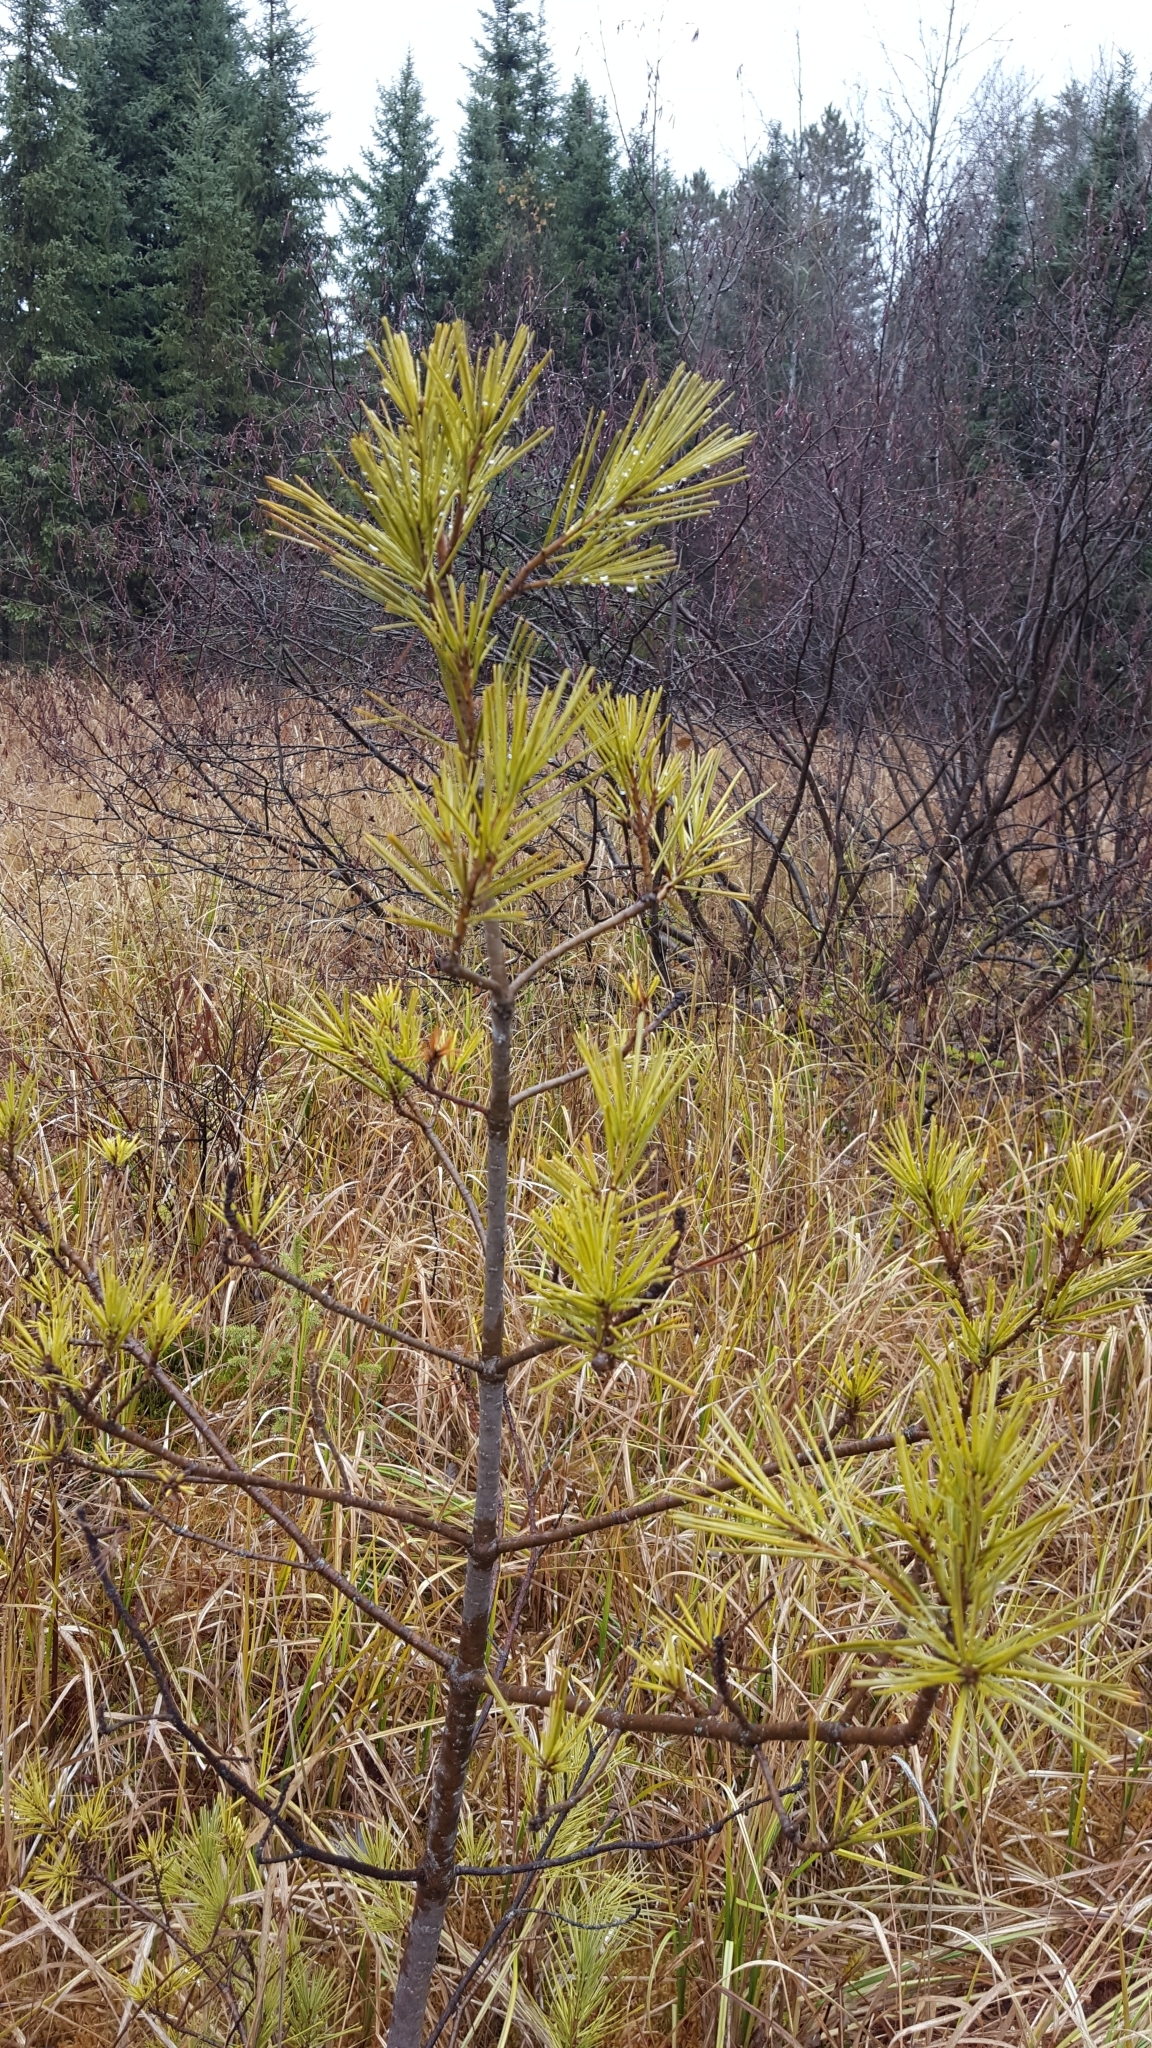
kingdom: Plantae
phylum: Tracheophyta
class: Pinopsida
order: Pinales
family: Pinaceae
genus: Pinus
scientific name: Pinus strobus
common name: Weymouth pine
